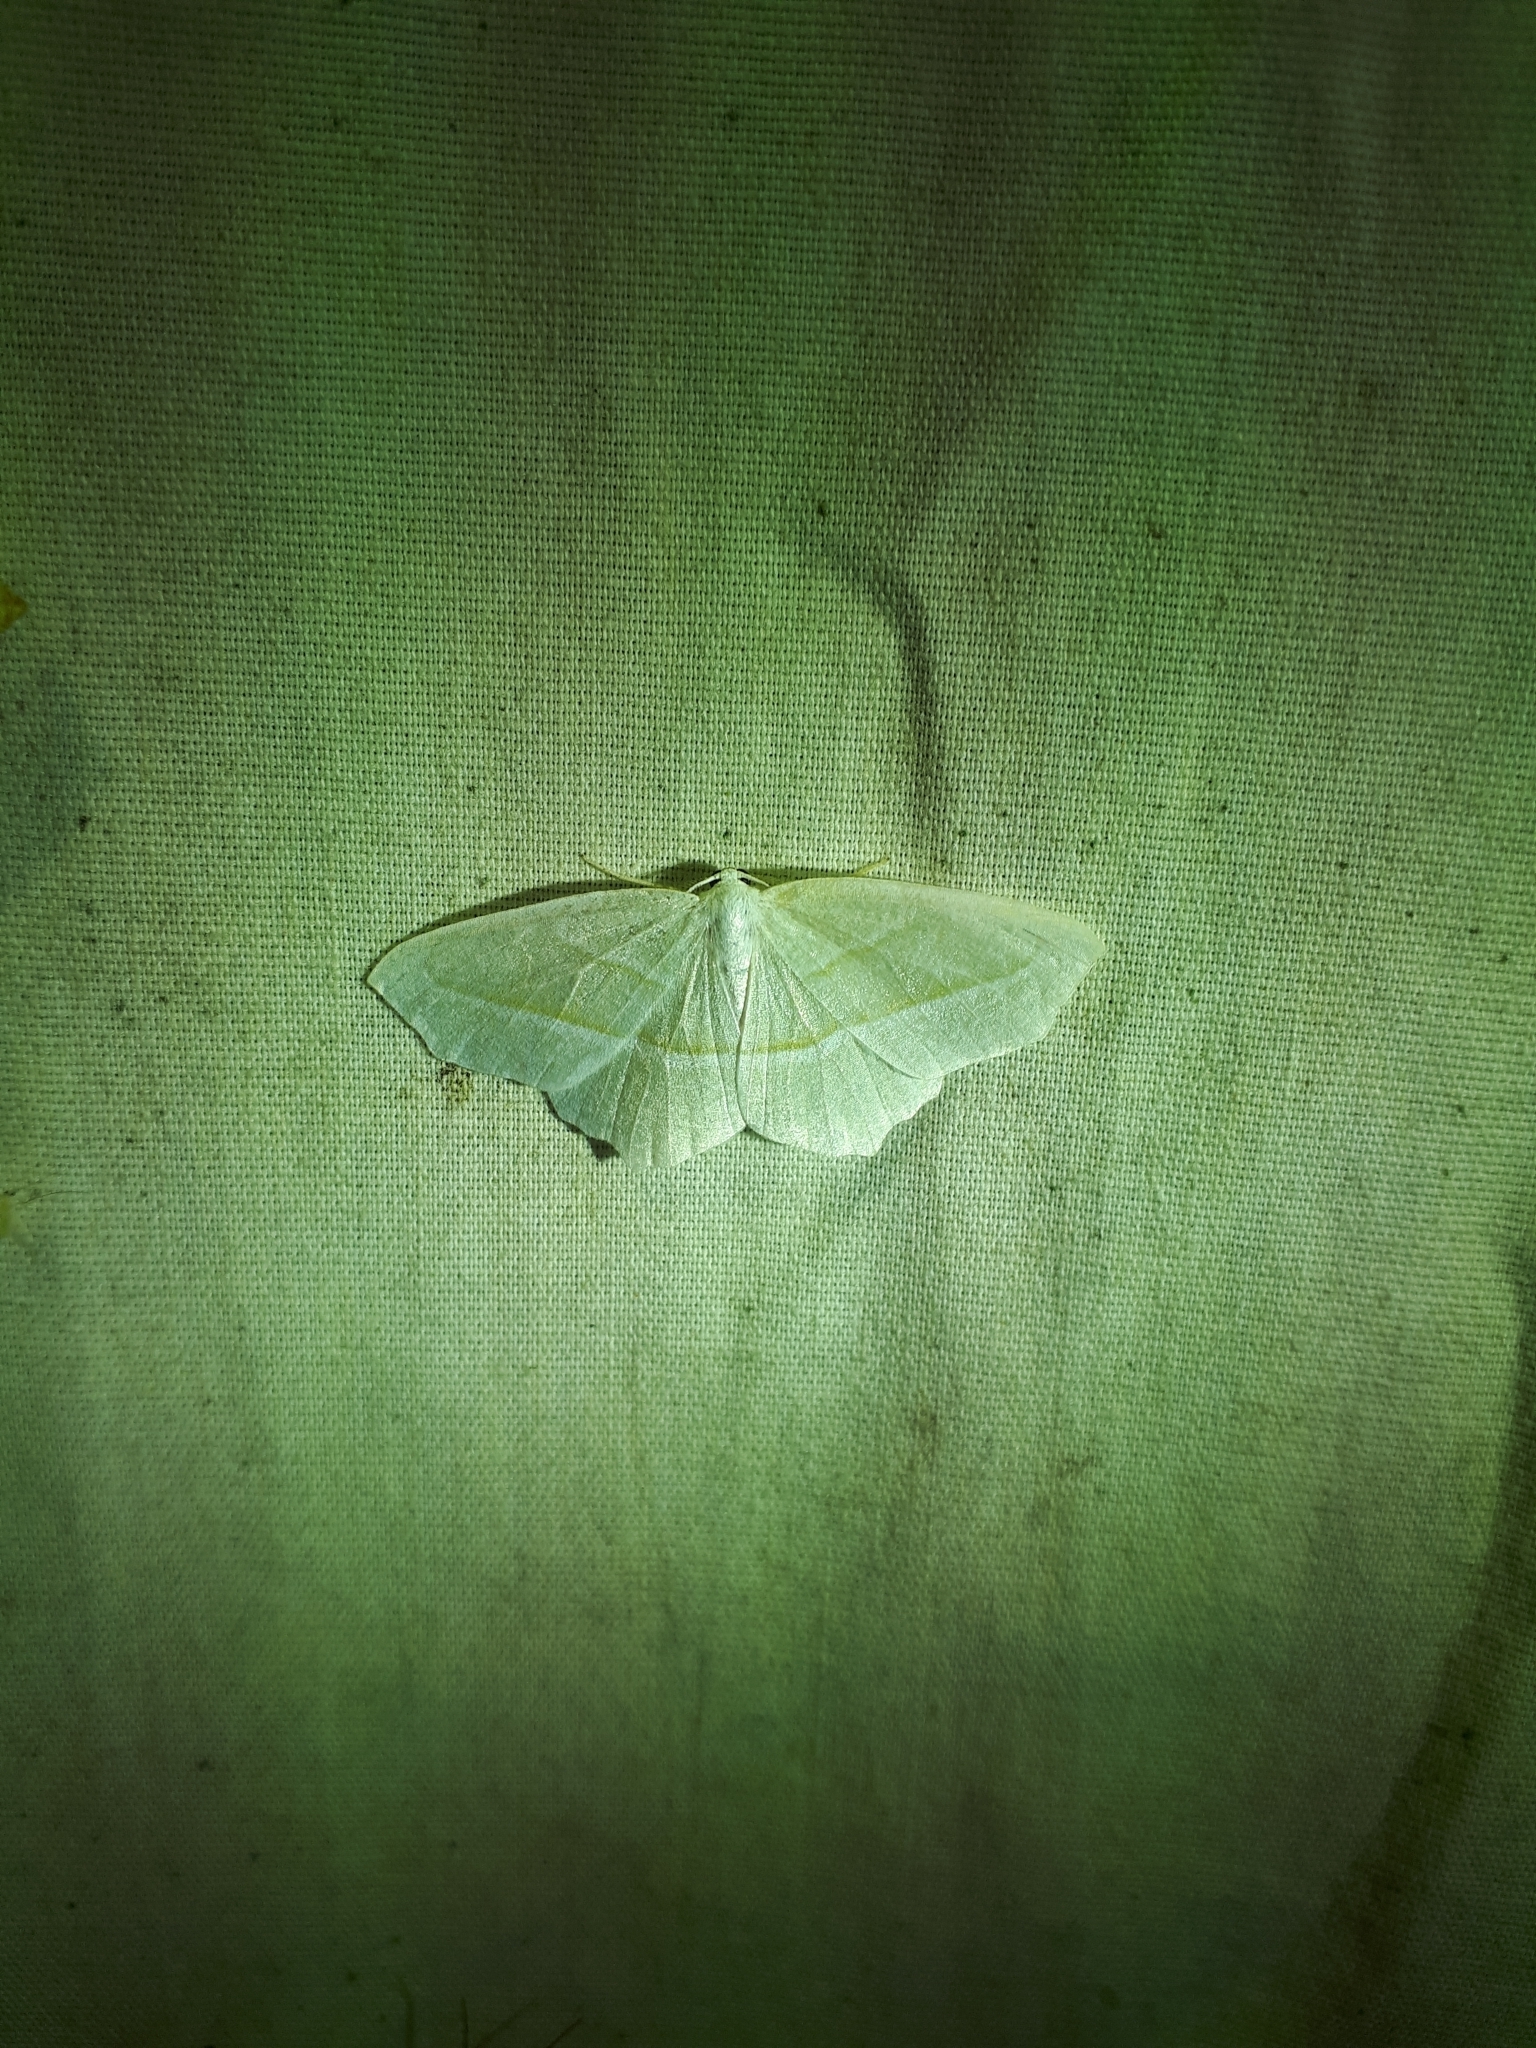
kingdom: Animalia
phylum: Arthropoda
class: Insecta
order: Lepidoptera
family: Geometridae
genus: Campaea
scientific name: Campaea perlata
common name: Fringed looper
